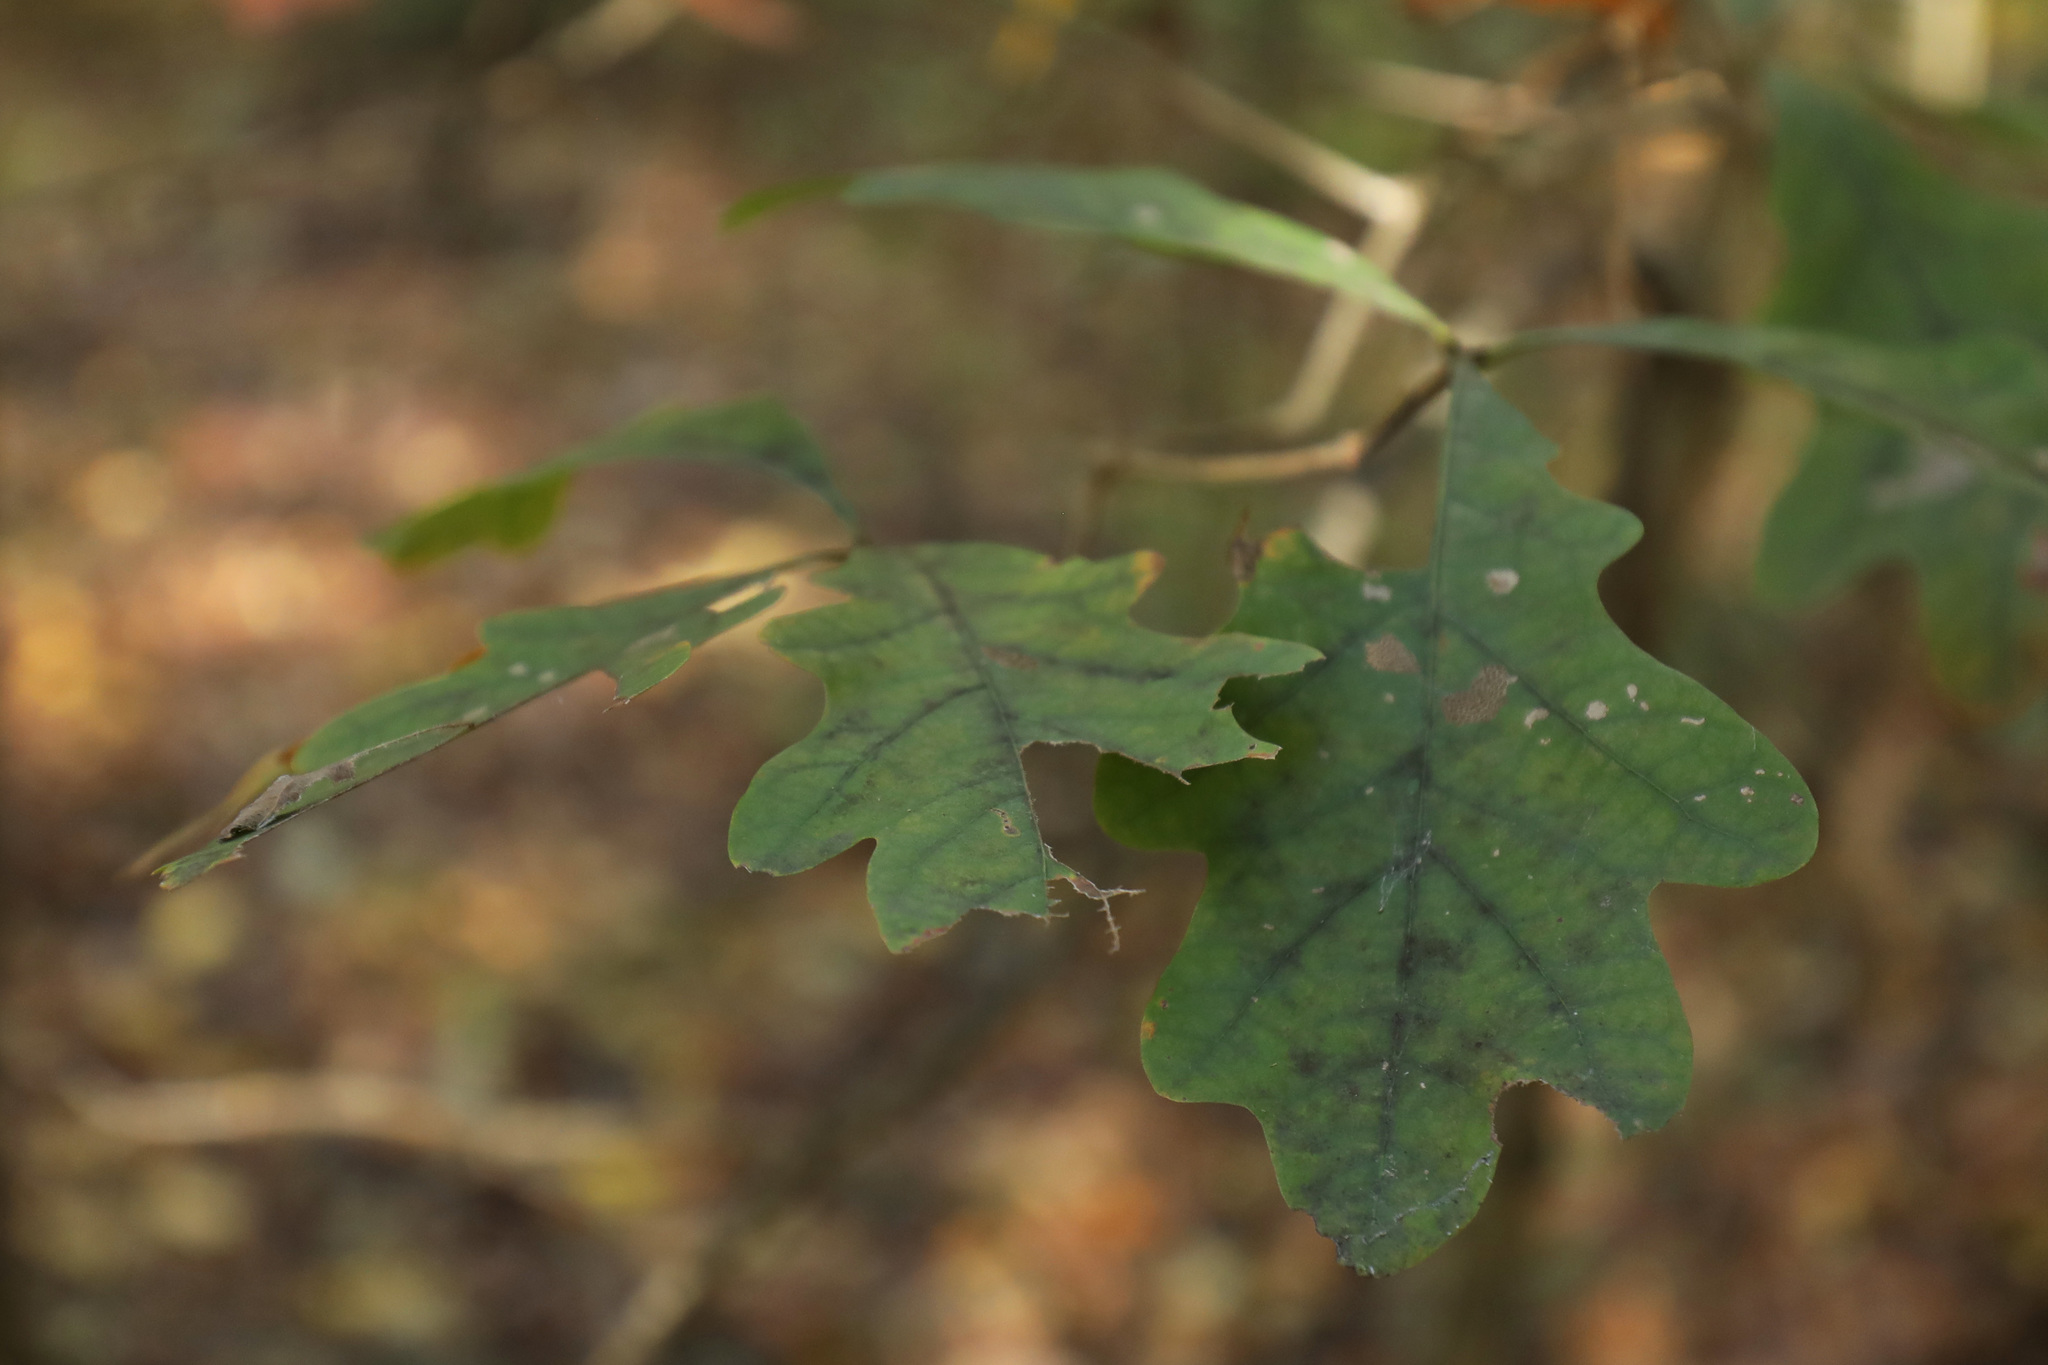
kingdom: Plantae
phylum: Tracheophyta
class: Magnoliopsida
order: Fagales
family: Fagaceae
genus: Quercus
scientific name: Quercus alba
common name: White oak
